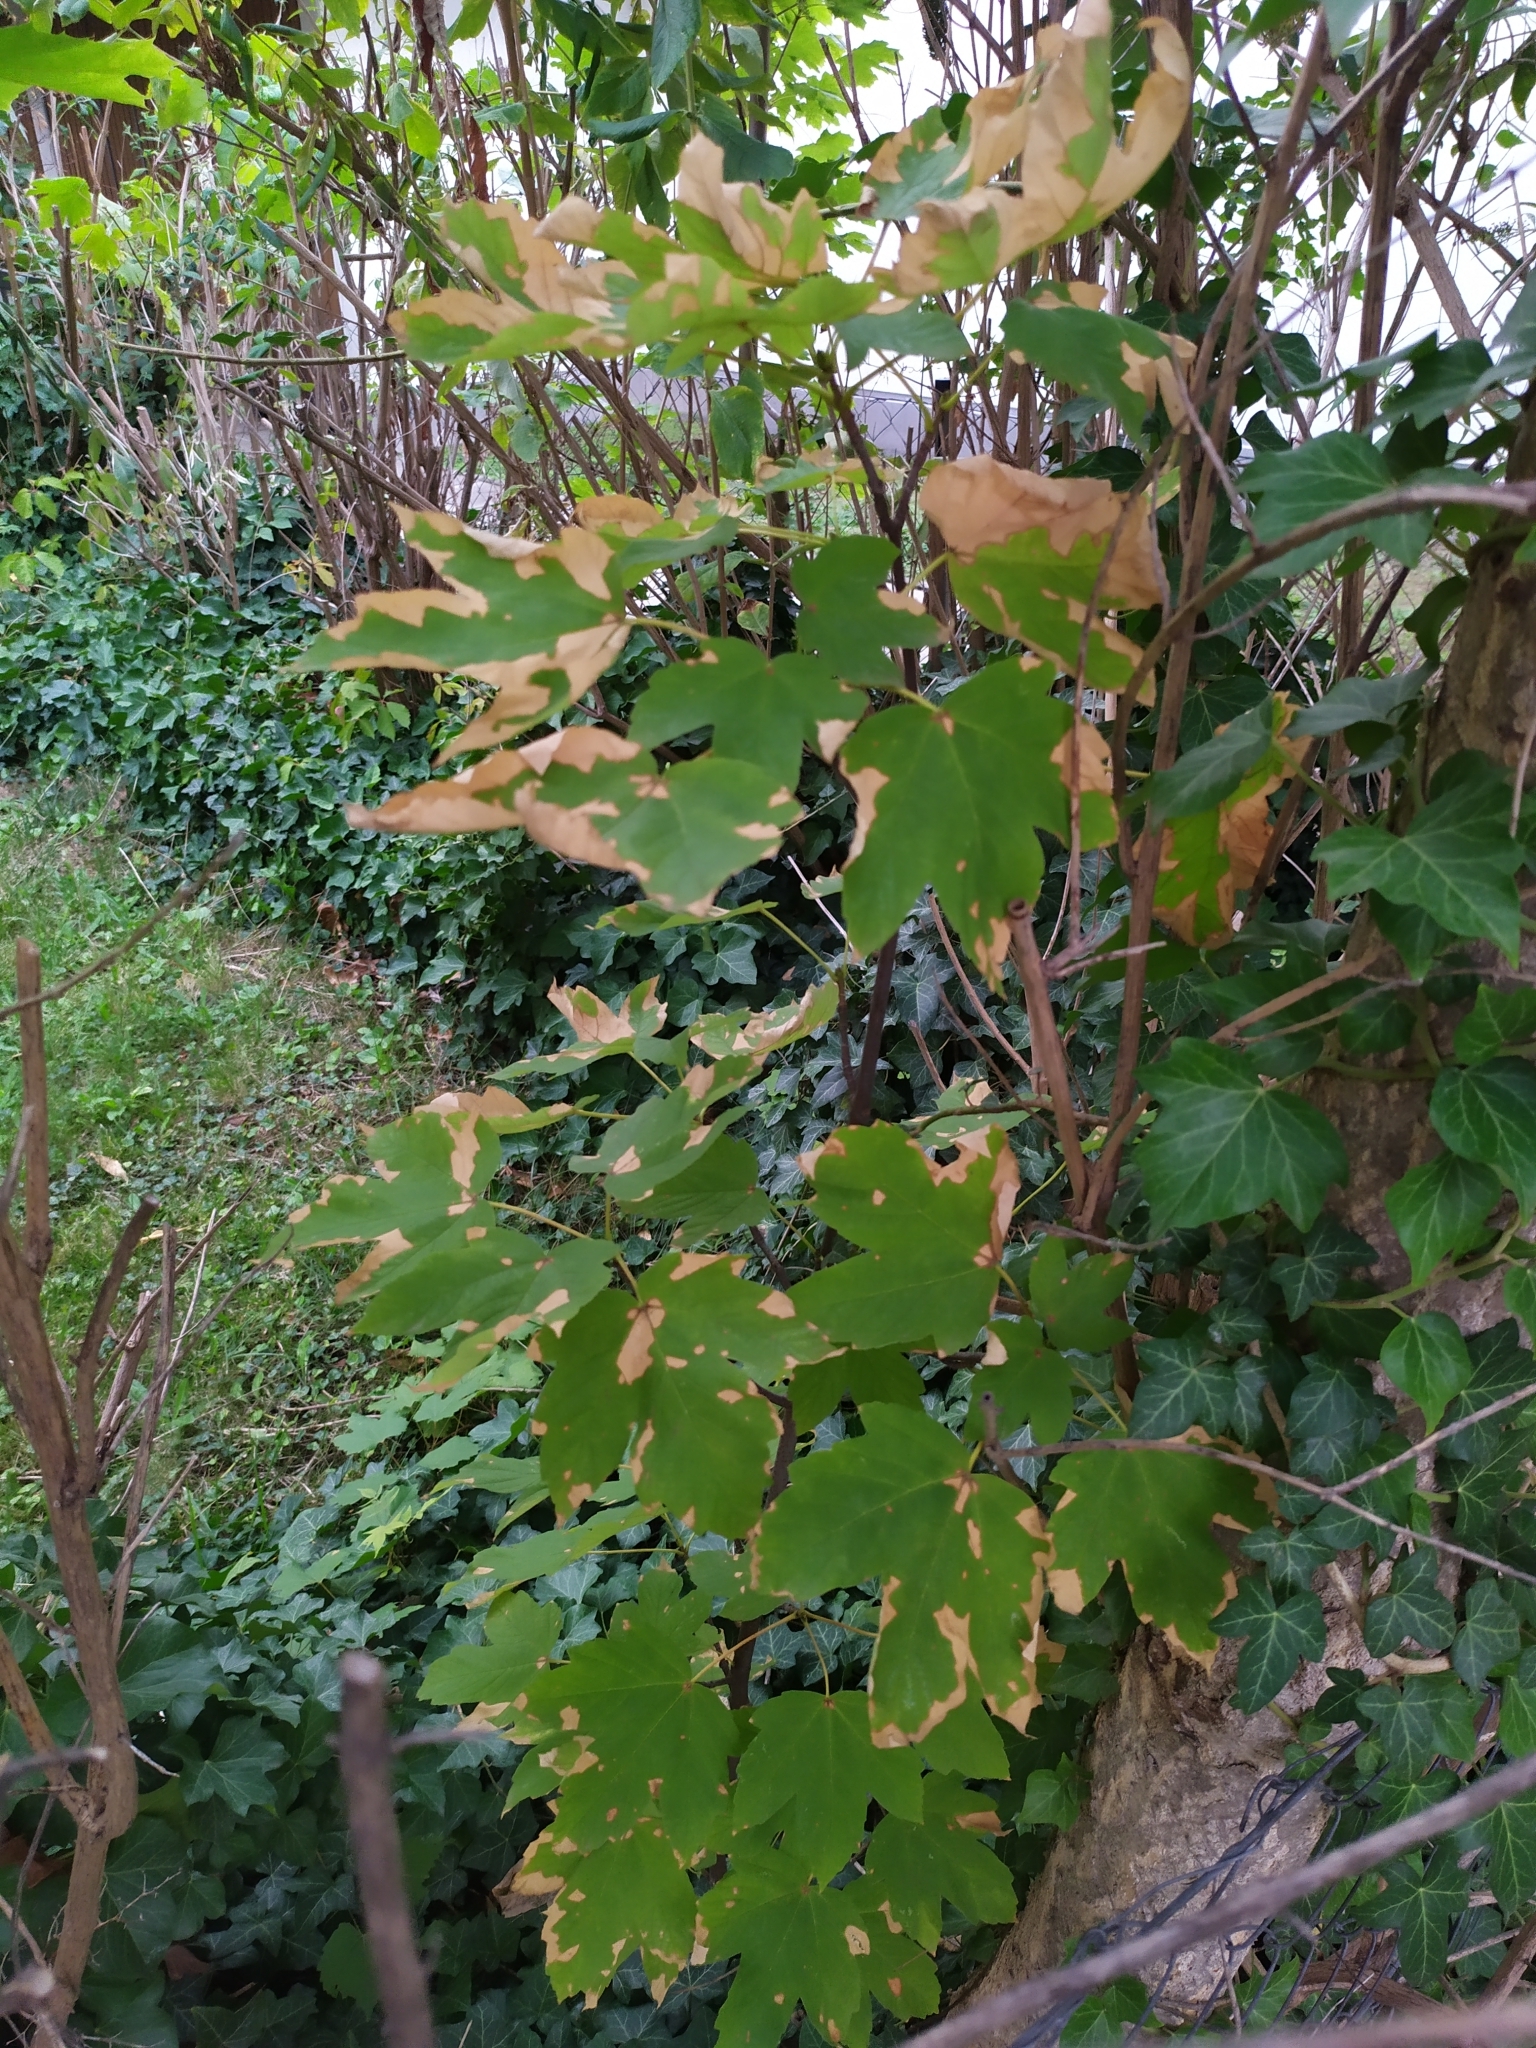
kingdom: Plantae
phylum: Tracheophyta
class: Magnoliopsida
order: Sapindales
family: Sapindaceae
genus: Acer
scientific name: Acer pseudoplatanus
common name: Sycamore
